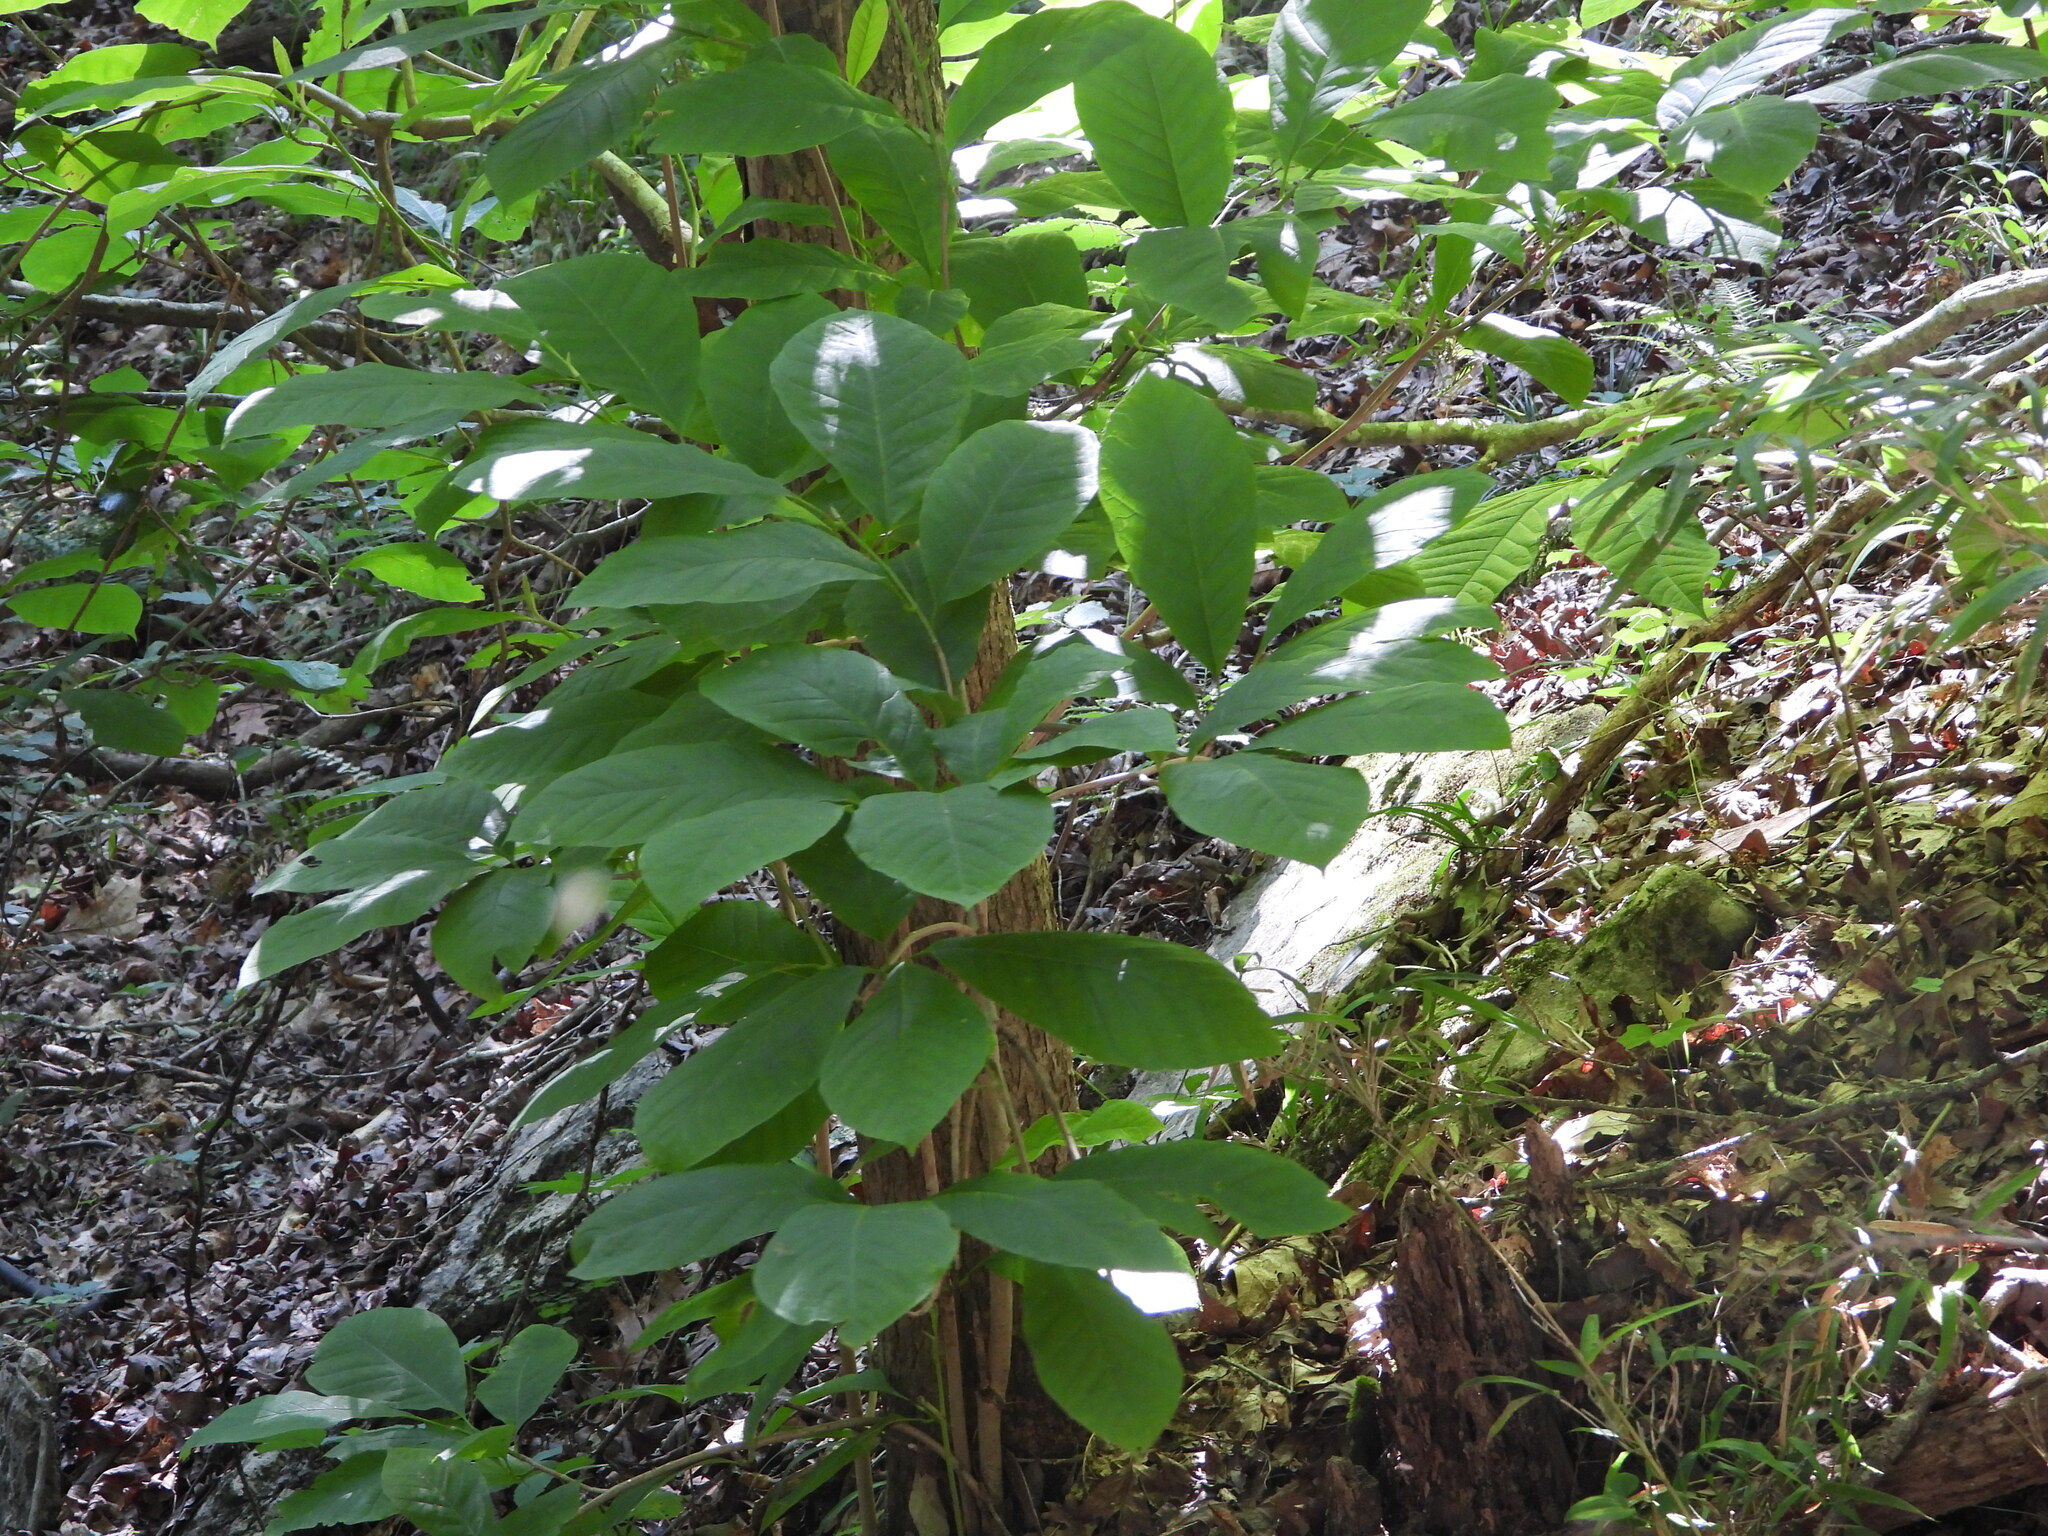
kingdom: Plantae
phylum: Tracheophyta
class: Magnoliopsida
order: Magnoliales
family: Annonaceae
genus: Asimina
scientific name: Asimina triloba
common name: Dog-banana
